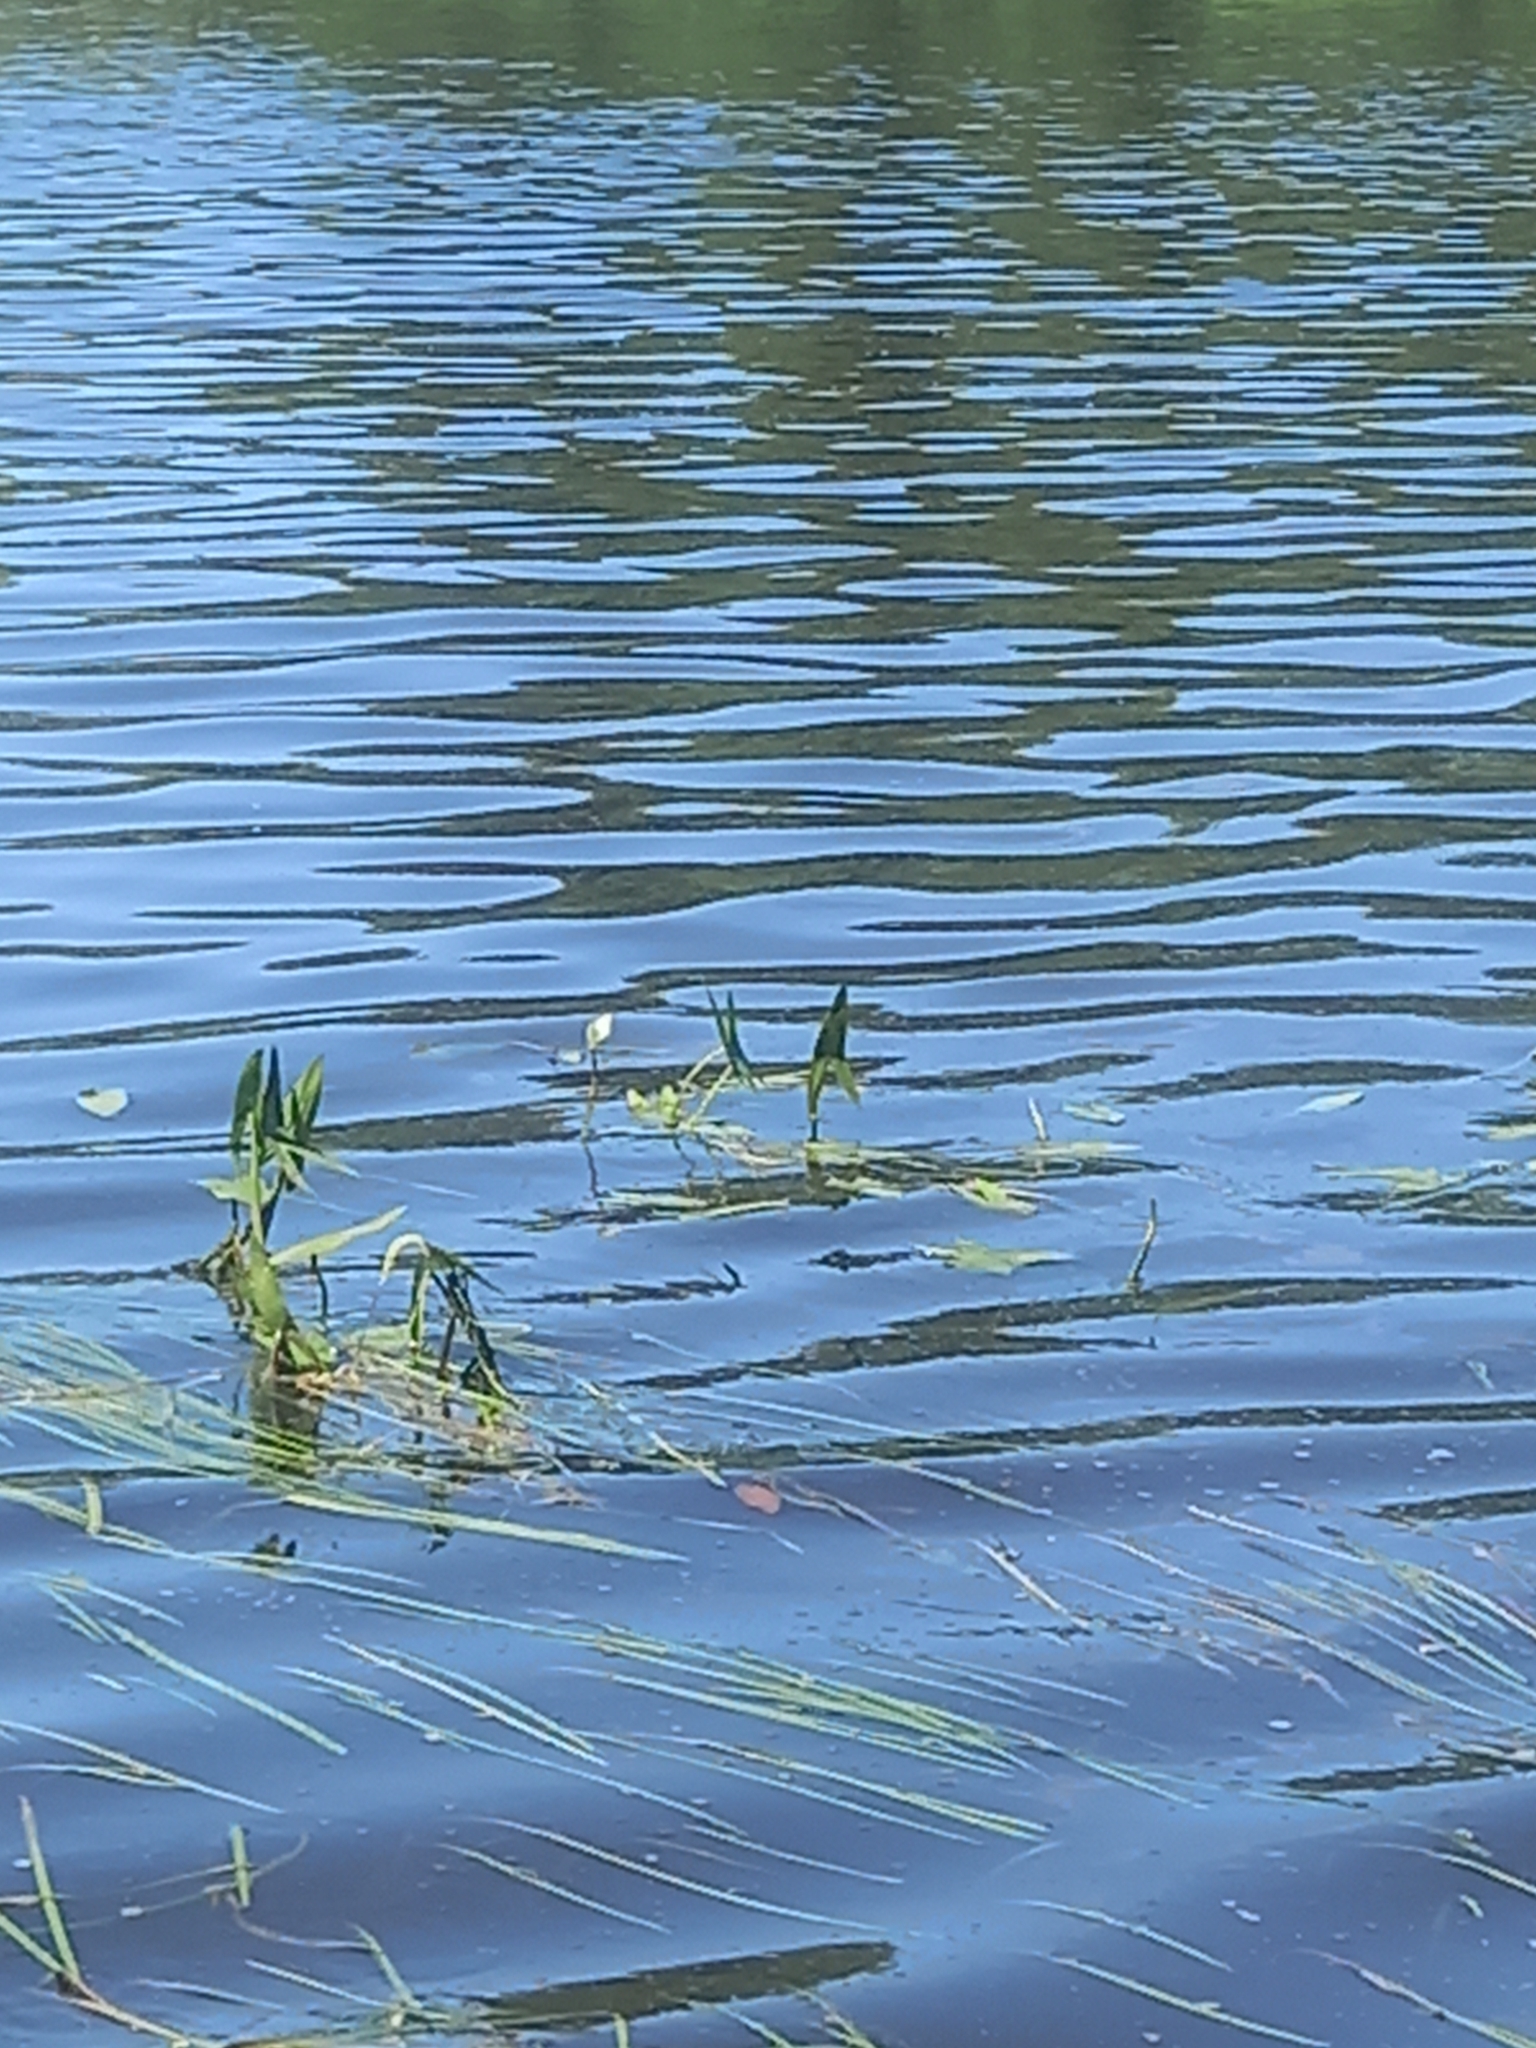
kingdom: Plantae
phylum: Tracheophyta
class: Liliopsida
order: Alismatales
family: Alismataceae
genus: Sagittaria
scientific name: Sagittaria sagittifolia
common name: Arrowhead
